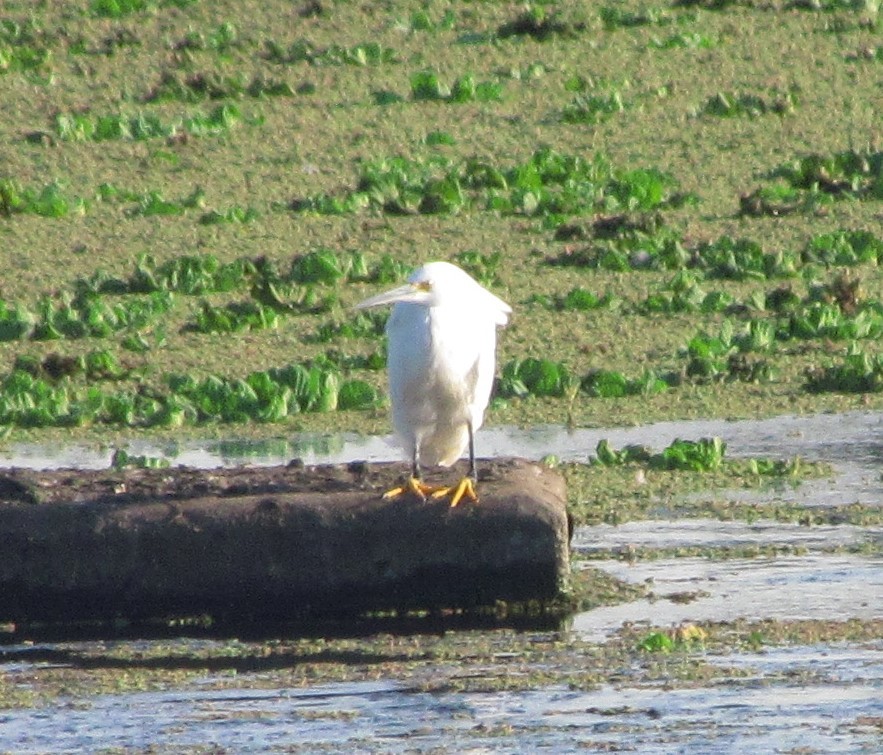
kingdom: Animalia
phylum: Chordata
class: Aves
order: Pelecaniformes
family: Ardeidae
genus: Egretta
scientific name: Egretta thula
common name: Snowy egret
